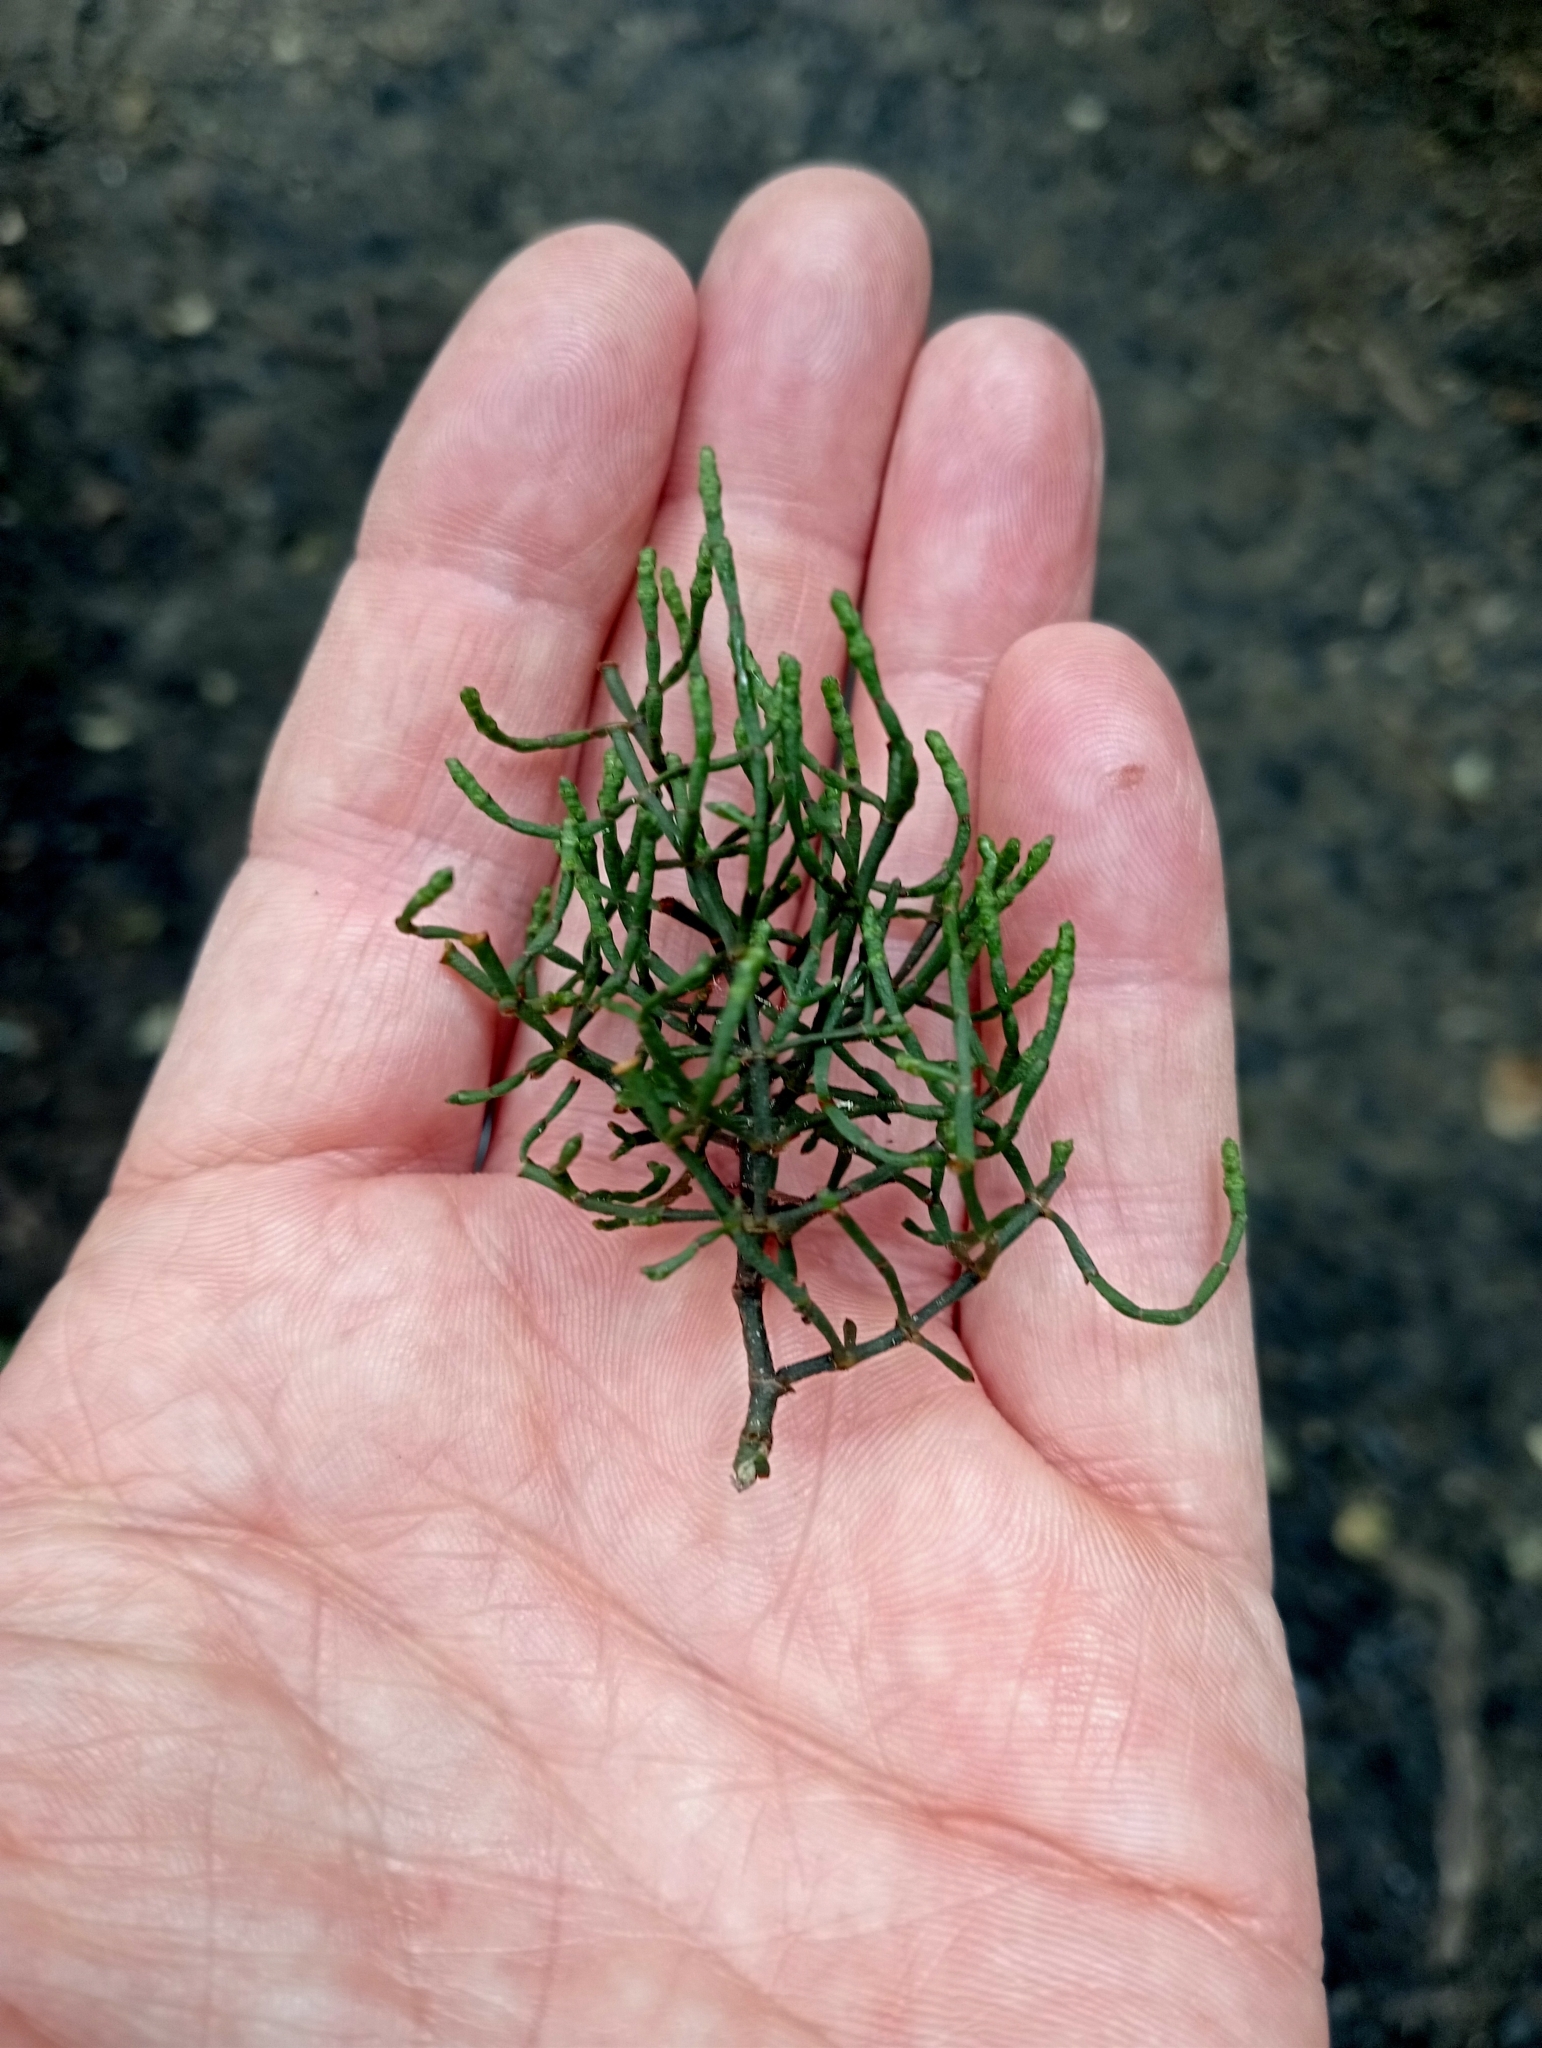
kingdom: Plantae
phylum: Tracheophyta
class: Magnoliopsida
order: Santalales
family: Viscaceae
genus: Korthalsella
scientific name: Korthalsella salicornioides
